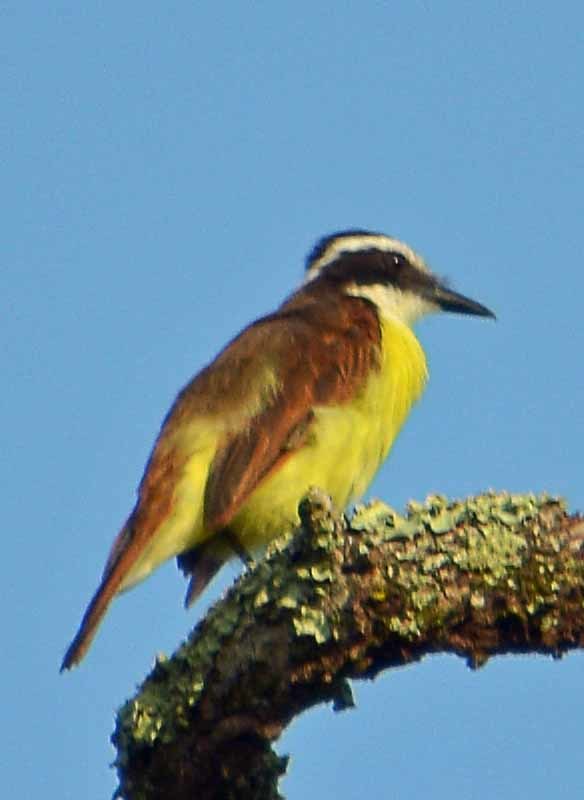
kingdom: Animalia
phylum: Chordata
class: Aves
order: Passeriformes
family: Tyrannidae
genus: Pitangus
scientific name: Pitangus sulphuratus
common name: Great kiskadee
